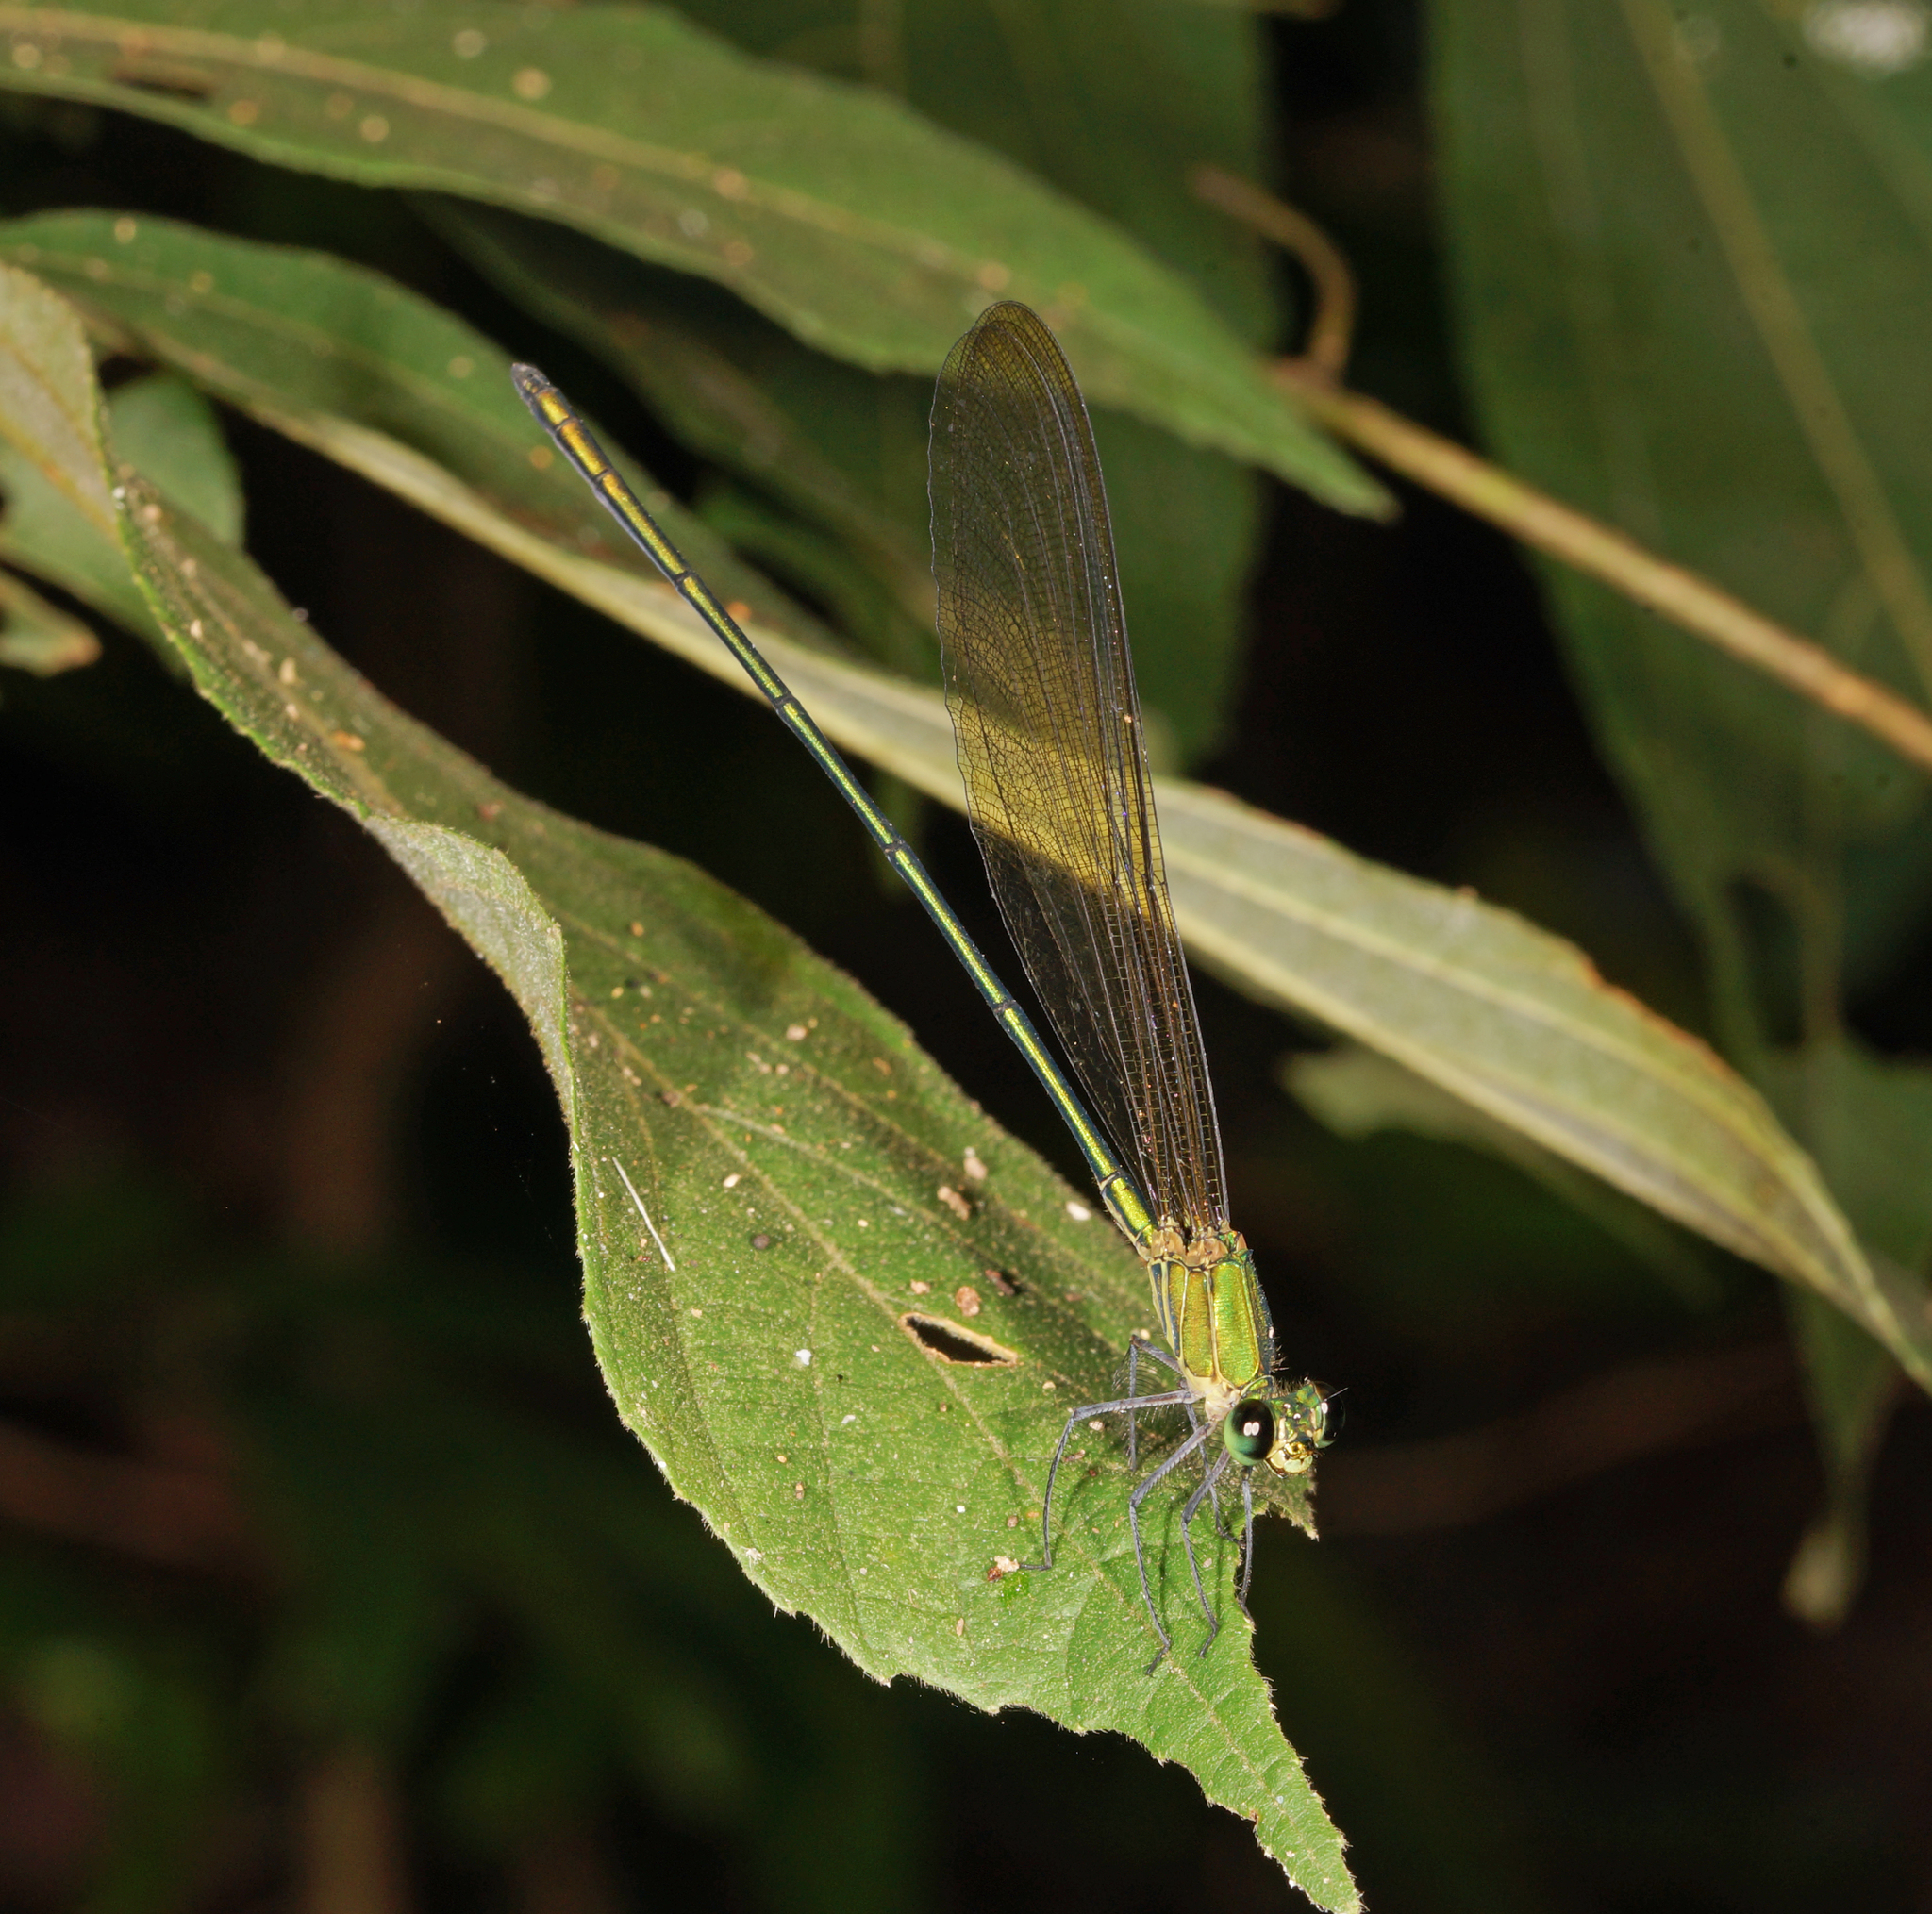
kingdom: Animalia
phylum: Arthropoda
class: Insecta
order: Odonata
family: Calopterygidae
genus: Vestalis
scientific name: Vestalis gracilis
